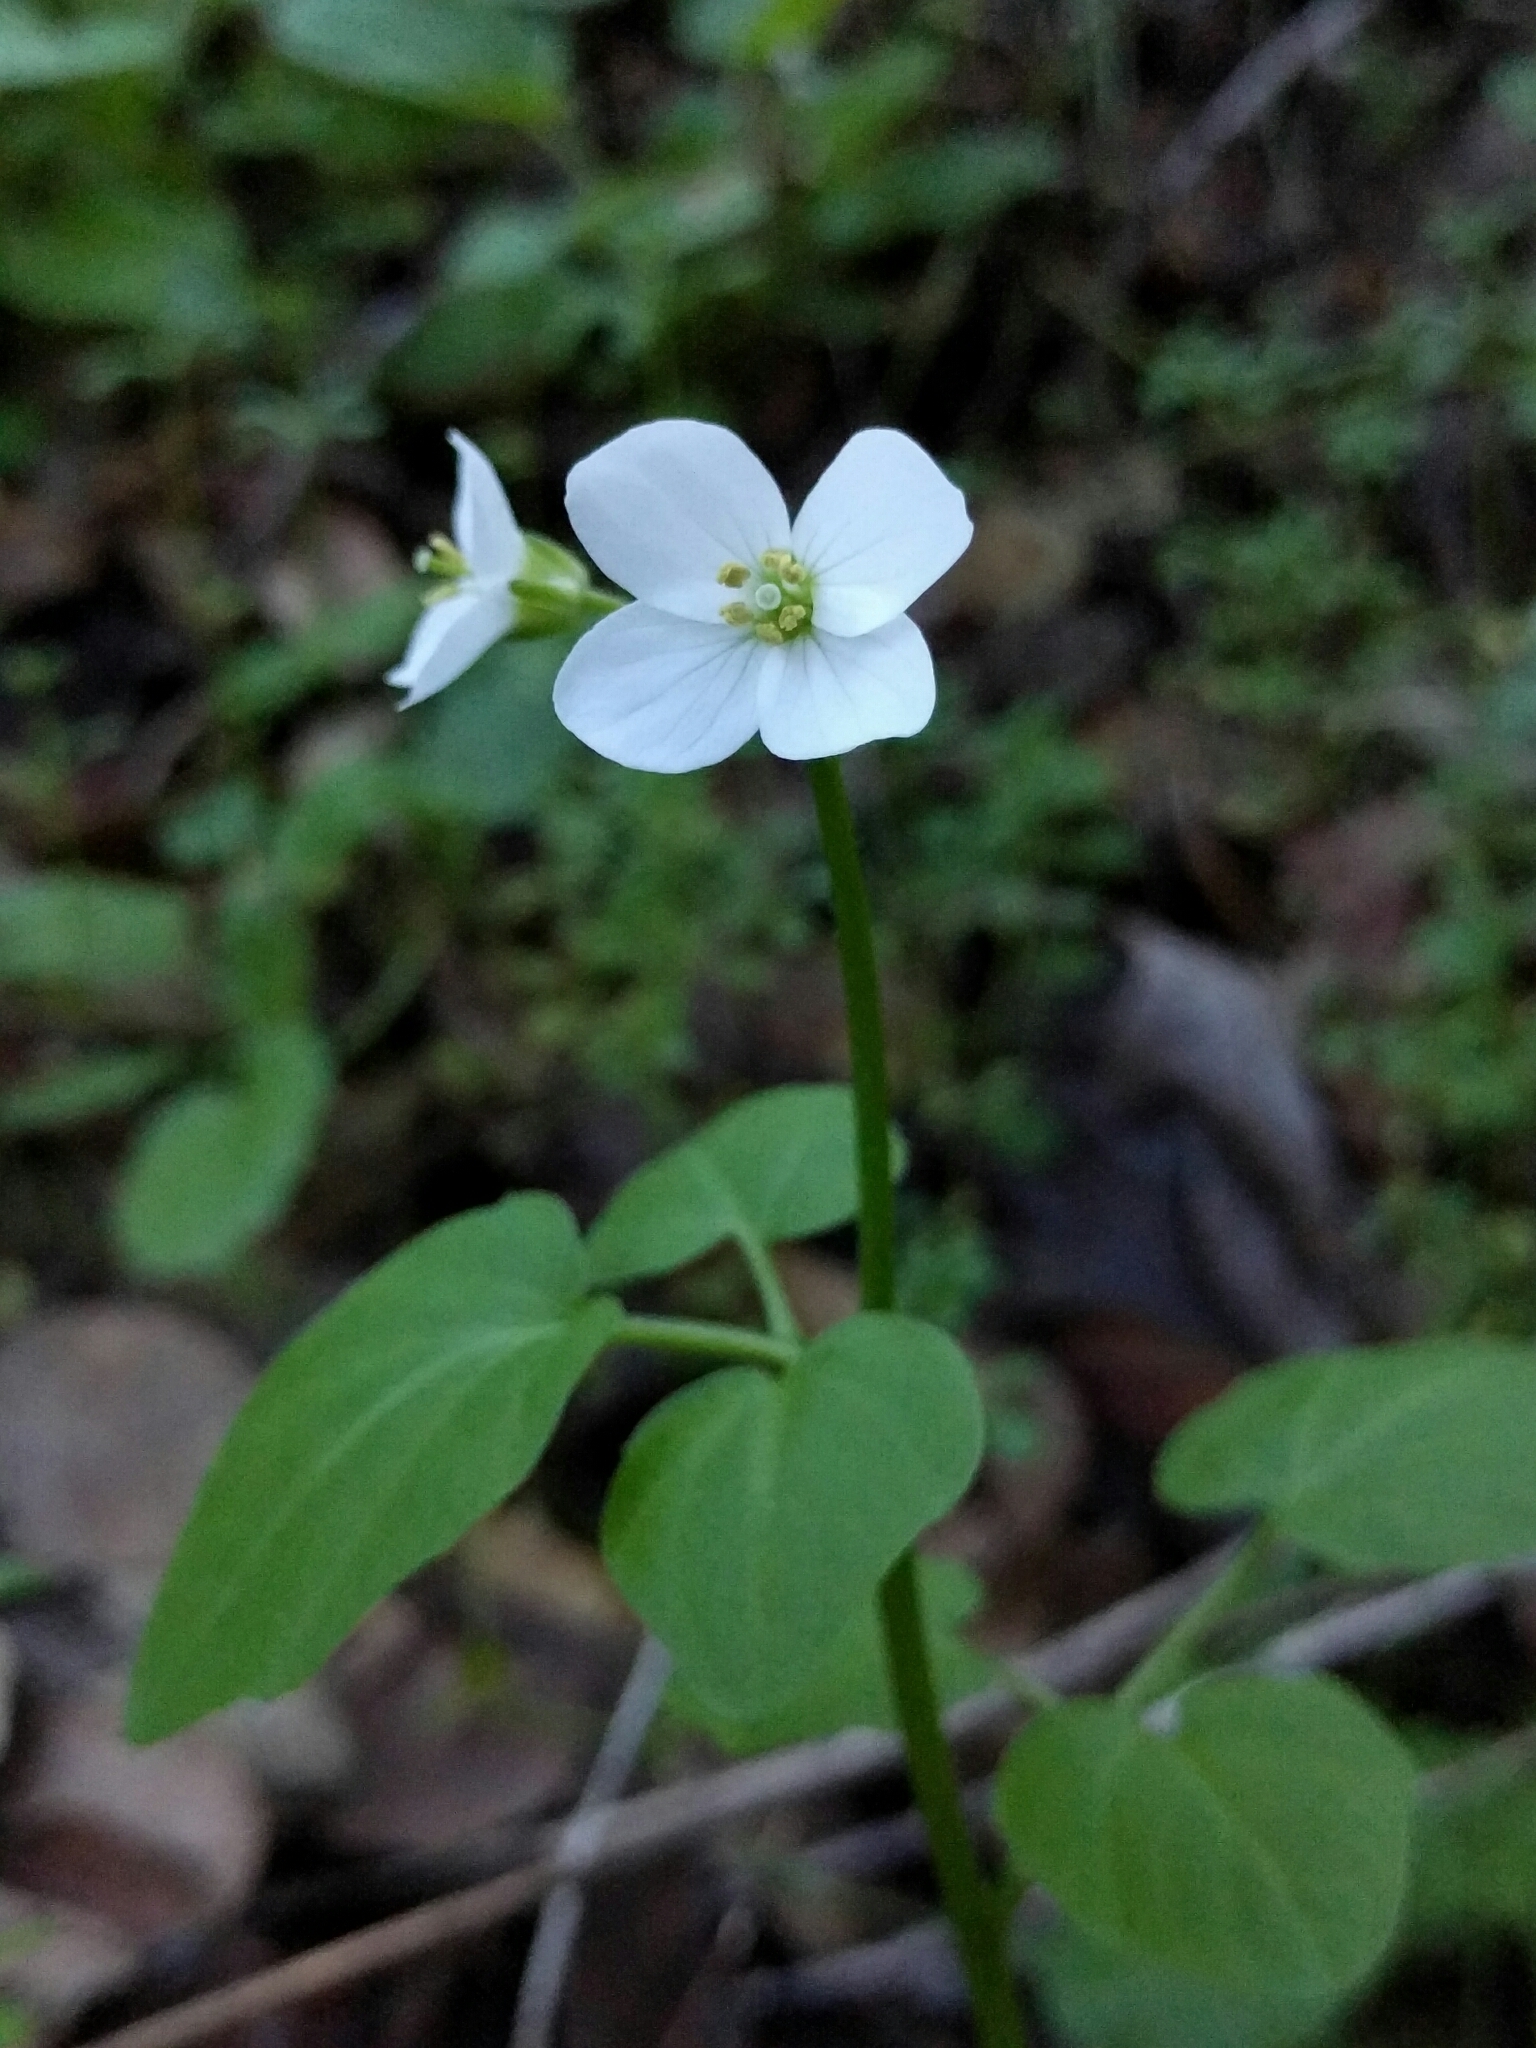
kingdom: Plantae
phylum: Tracheophyta
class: Magnoliopsida
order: Brassicales
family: Brassicaceae
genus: Cardamine
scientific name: Cardamine californica
